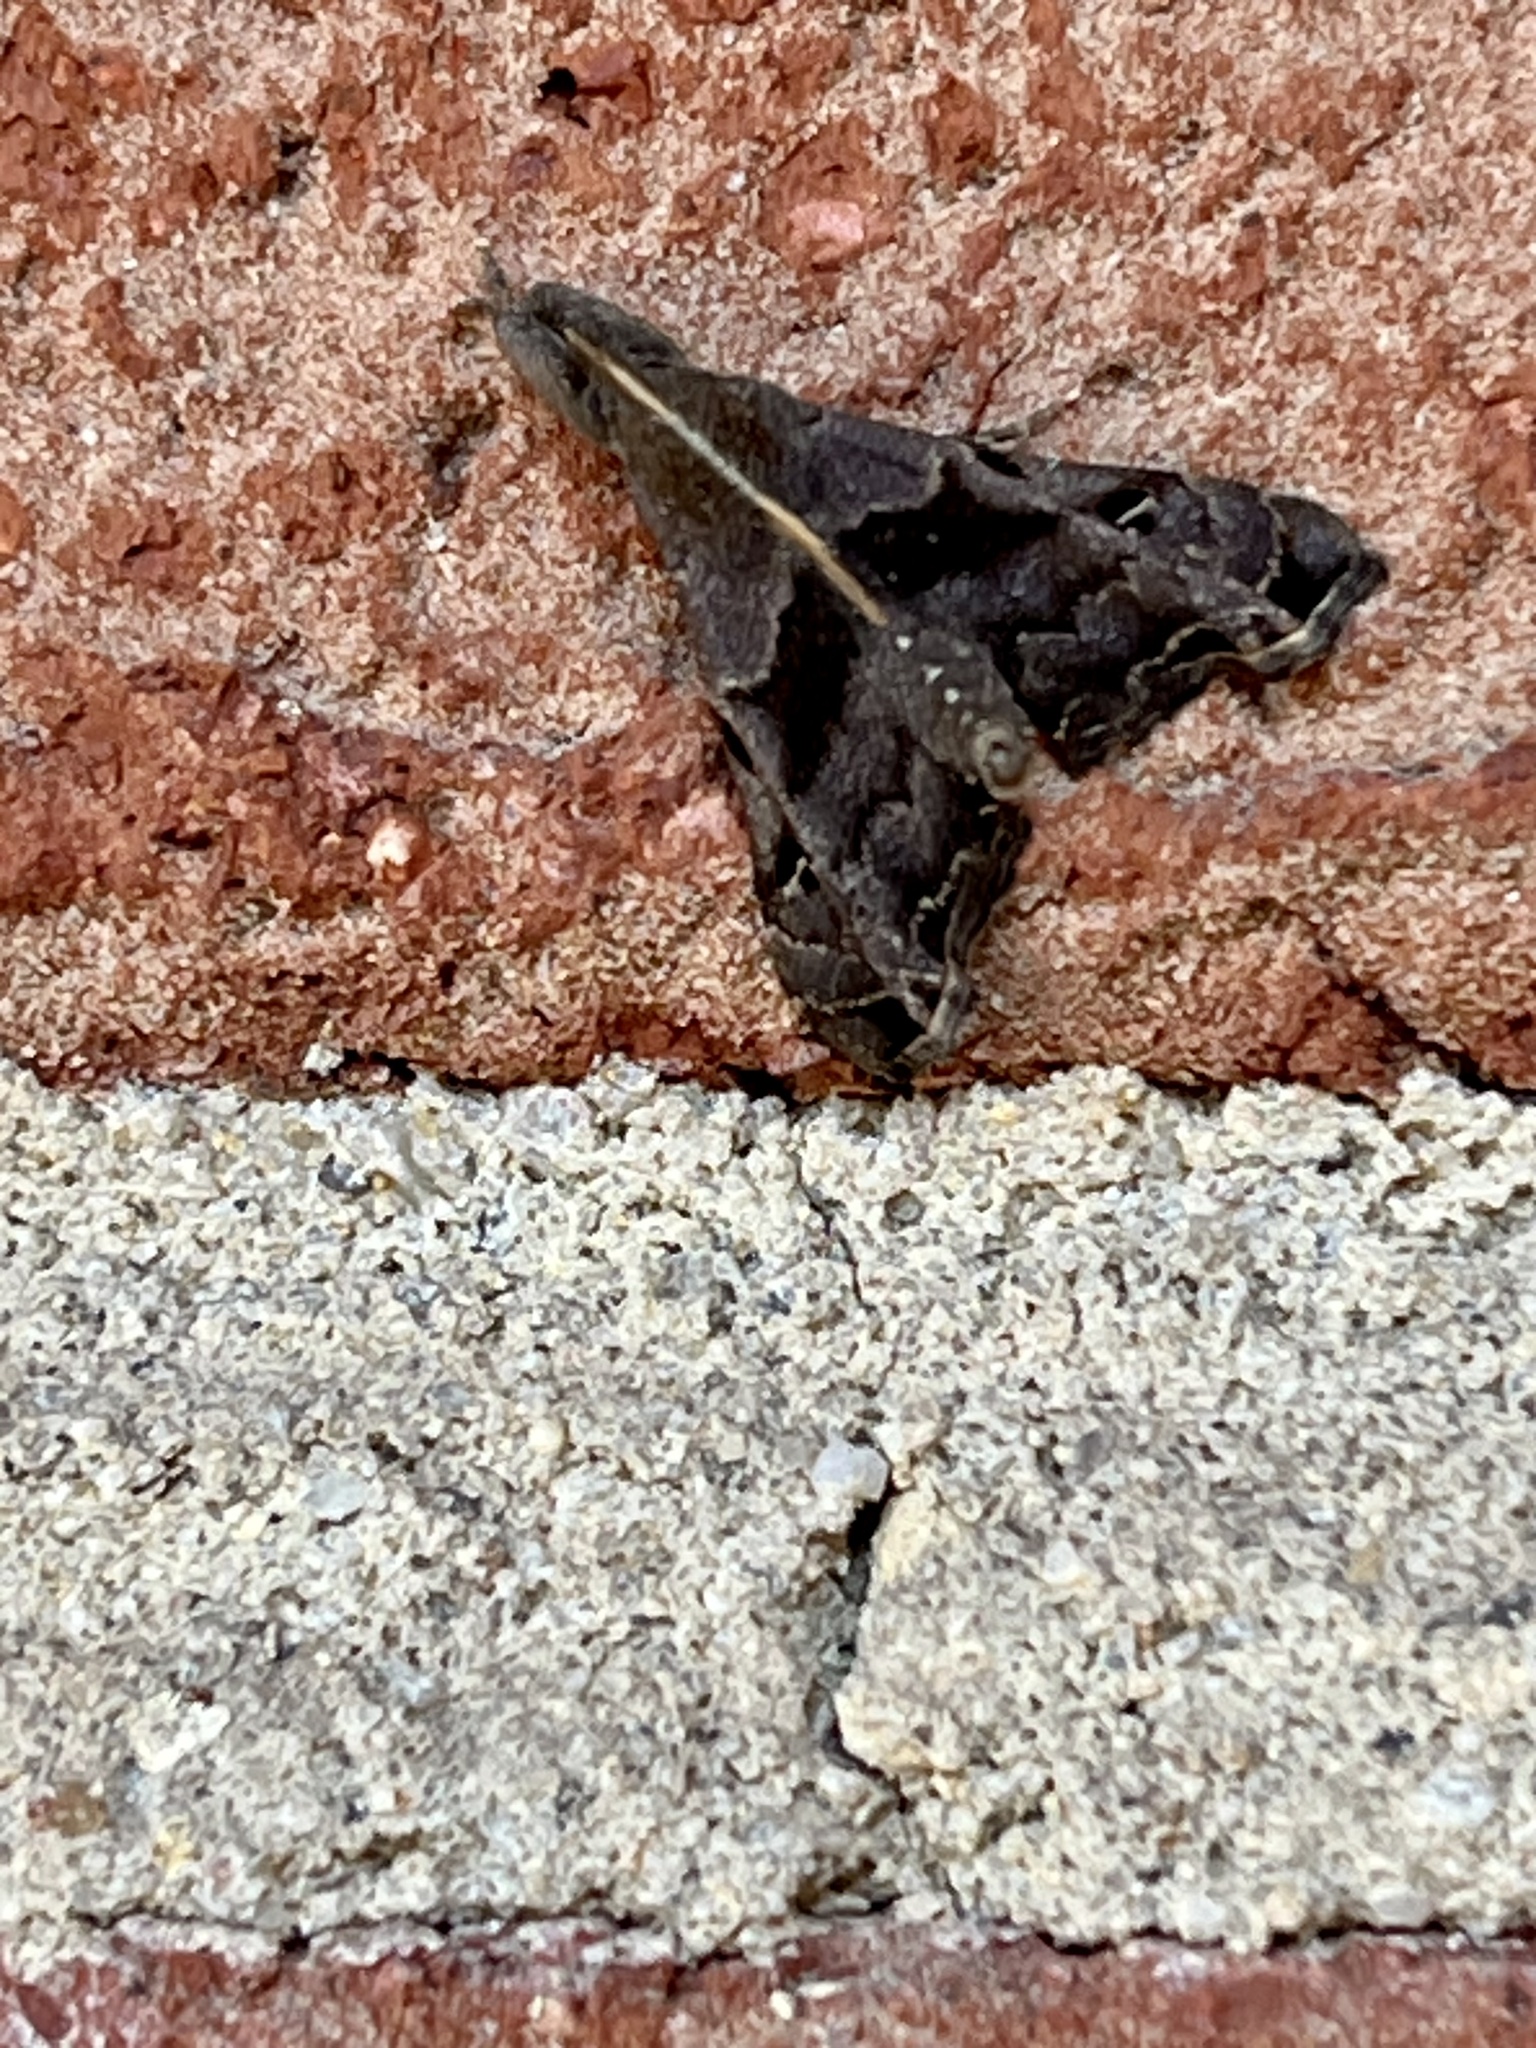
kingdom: Animalia
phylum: Arthropoda
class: Insecta
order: Lepidoptera
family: Erebidae
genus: Palthis
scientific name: Palthis asopialis
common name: Faint-spotted palthis moth
